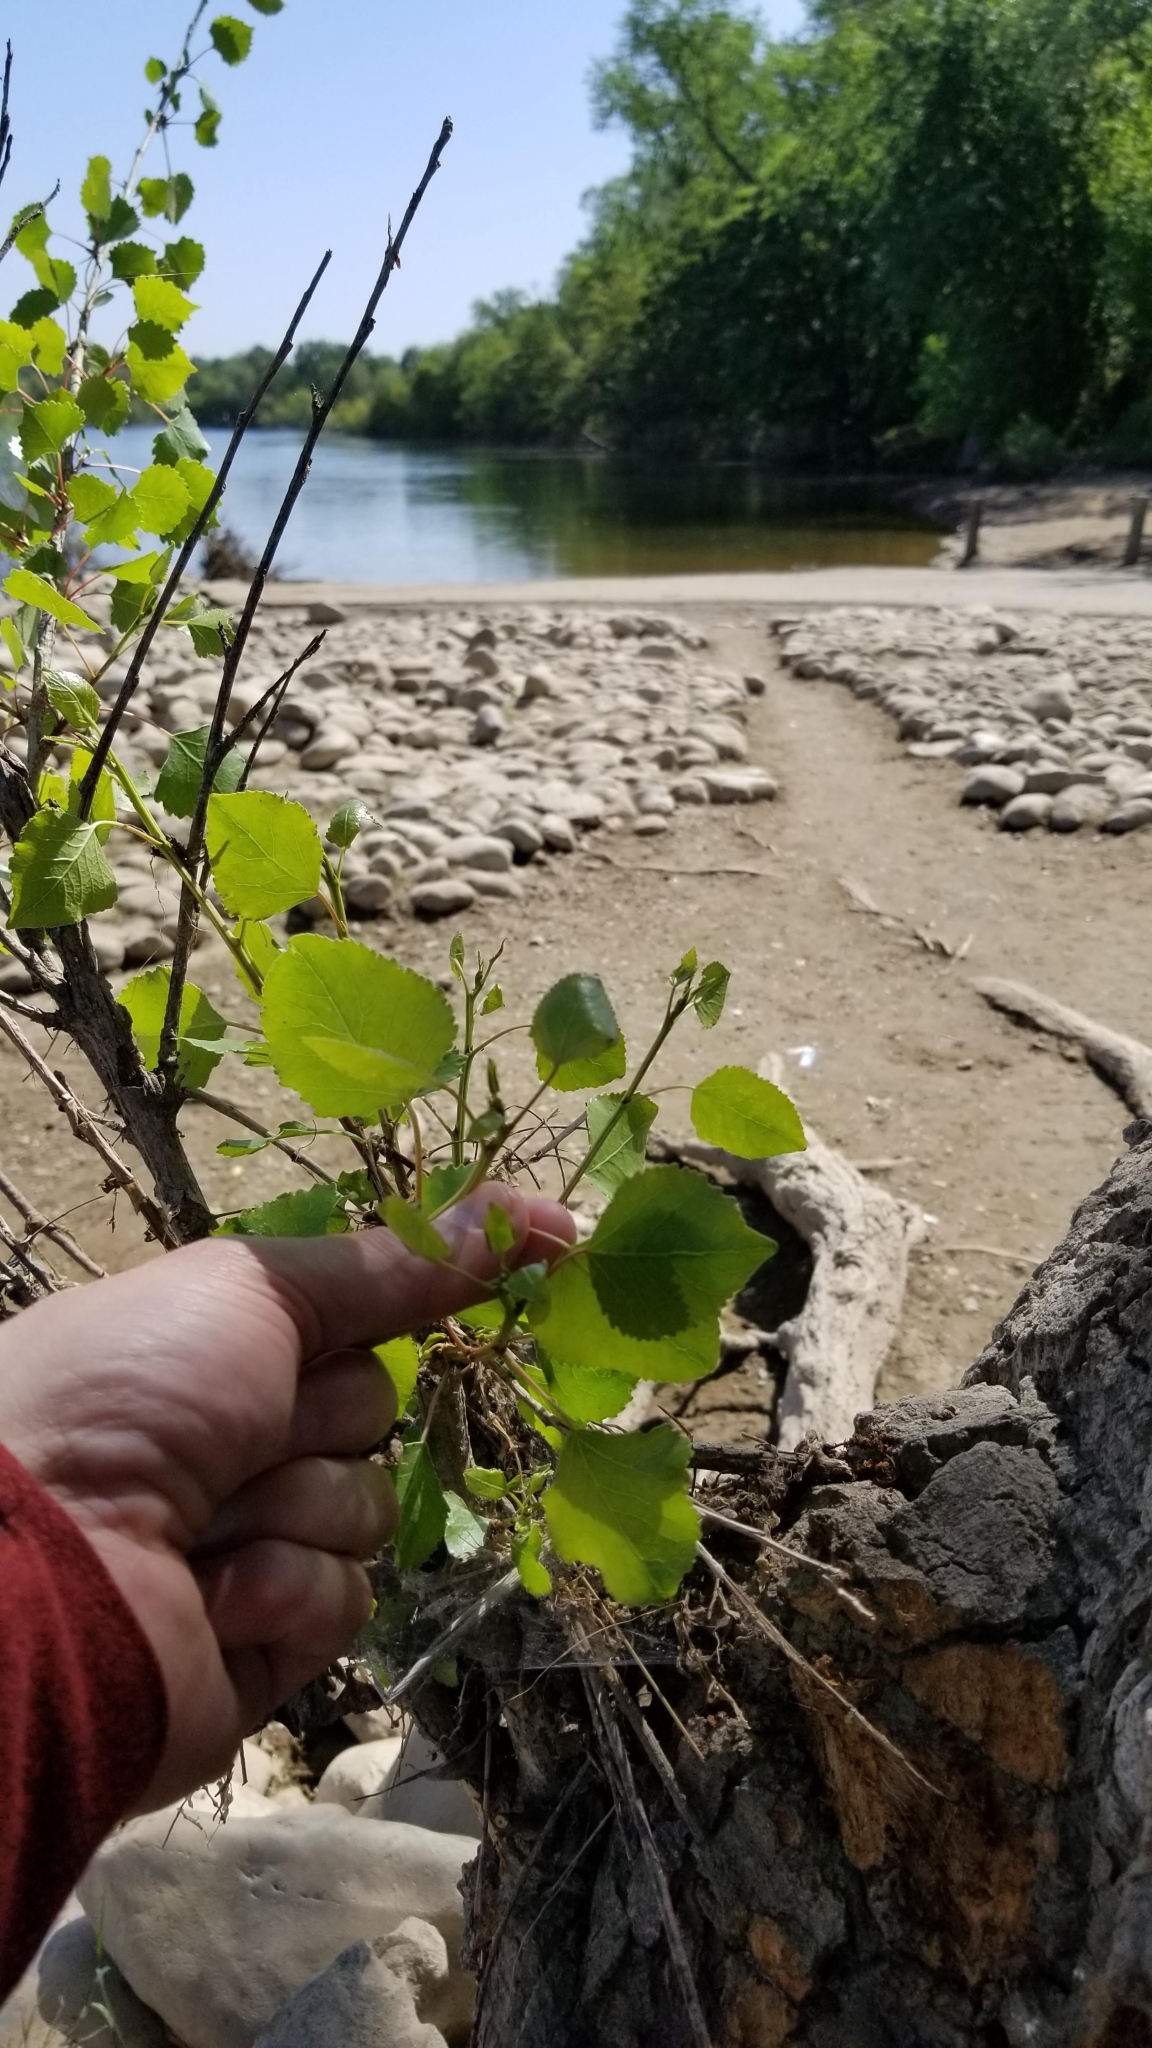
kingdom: Plantae
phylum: Tracheophyta
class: Magnoliopsida
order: Malpighiales
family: Salicaceae
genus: Populus
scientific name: Populus fremontii
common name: Fremont's cottonwood
